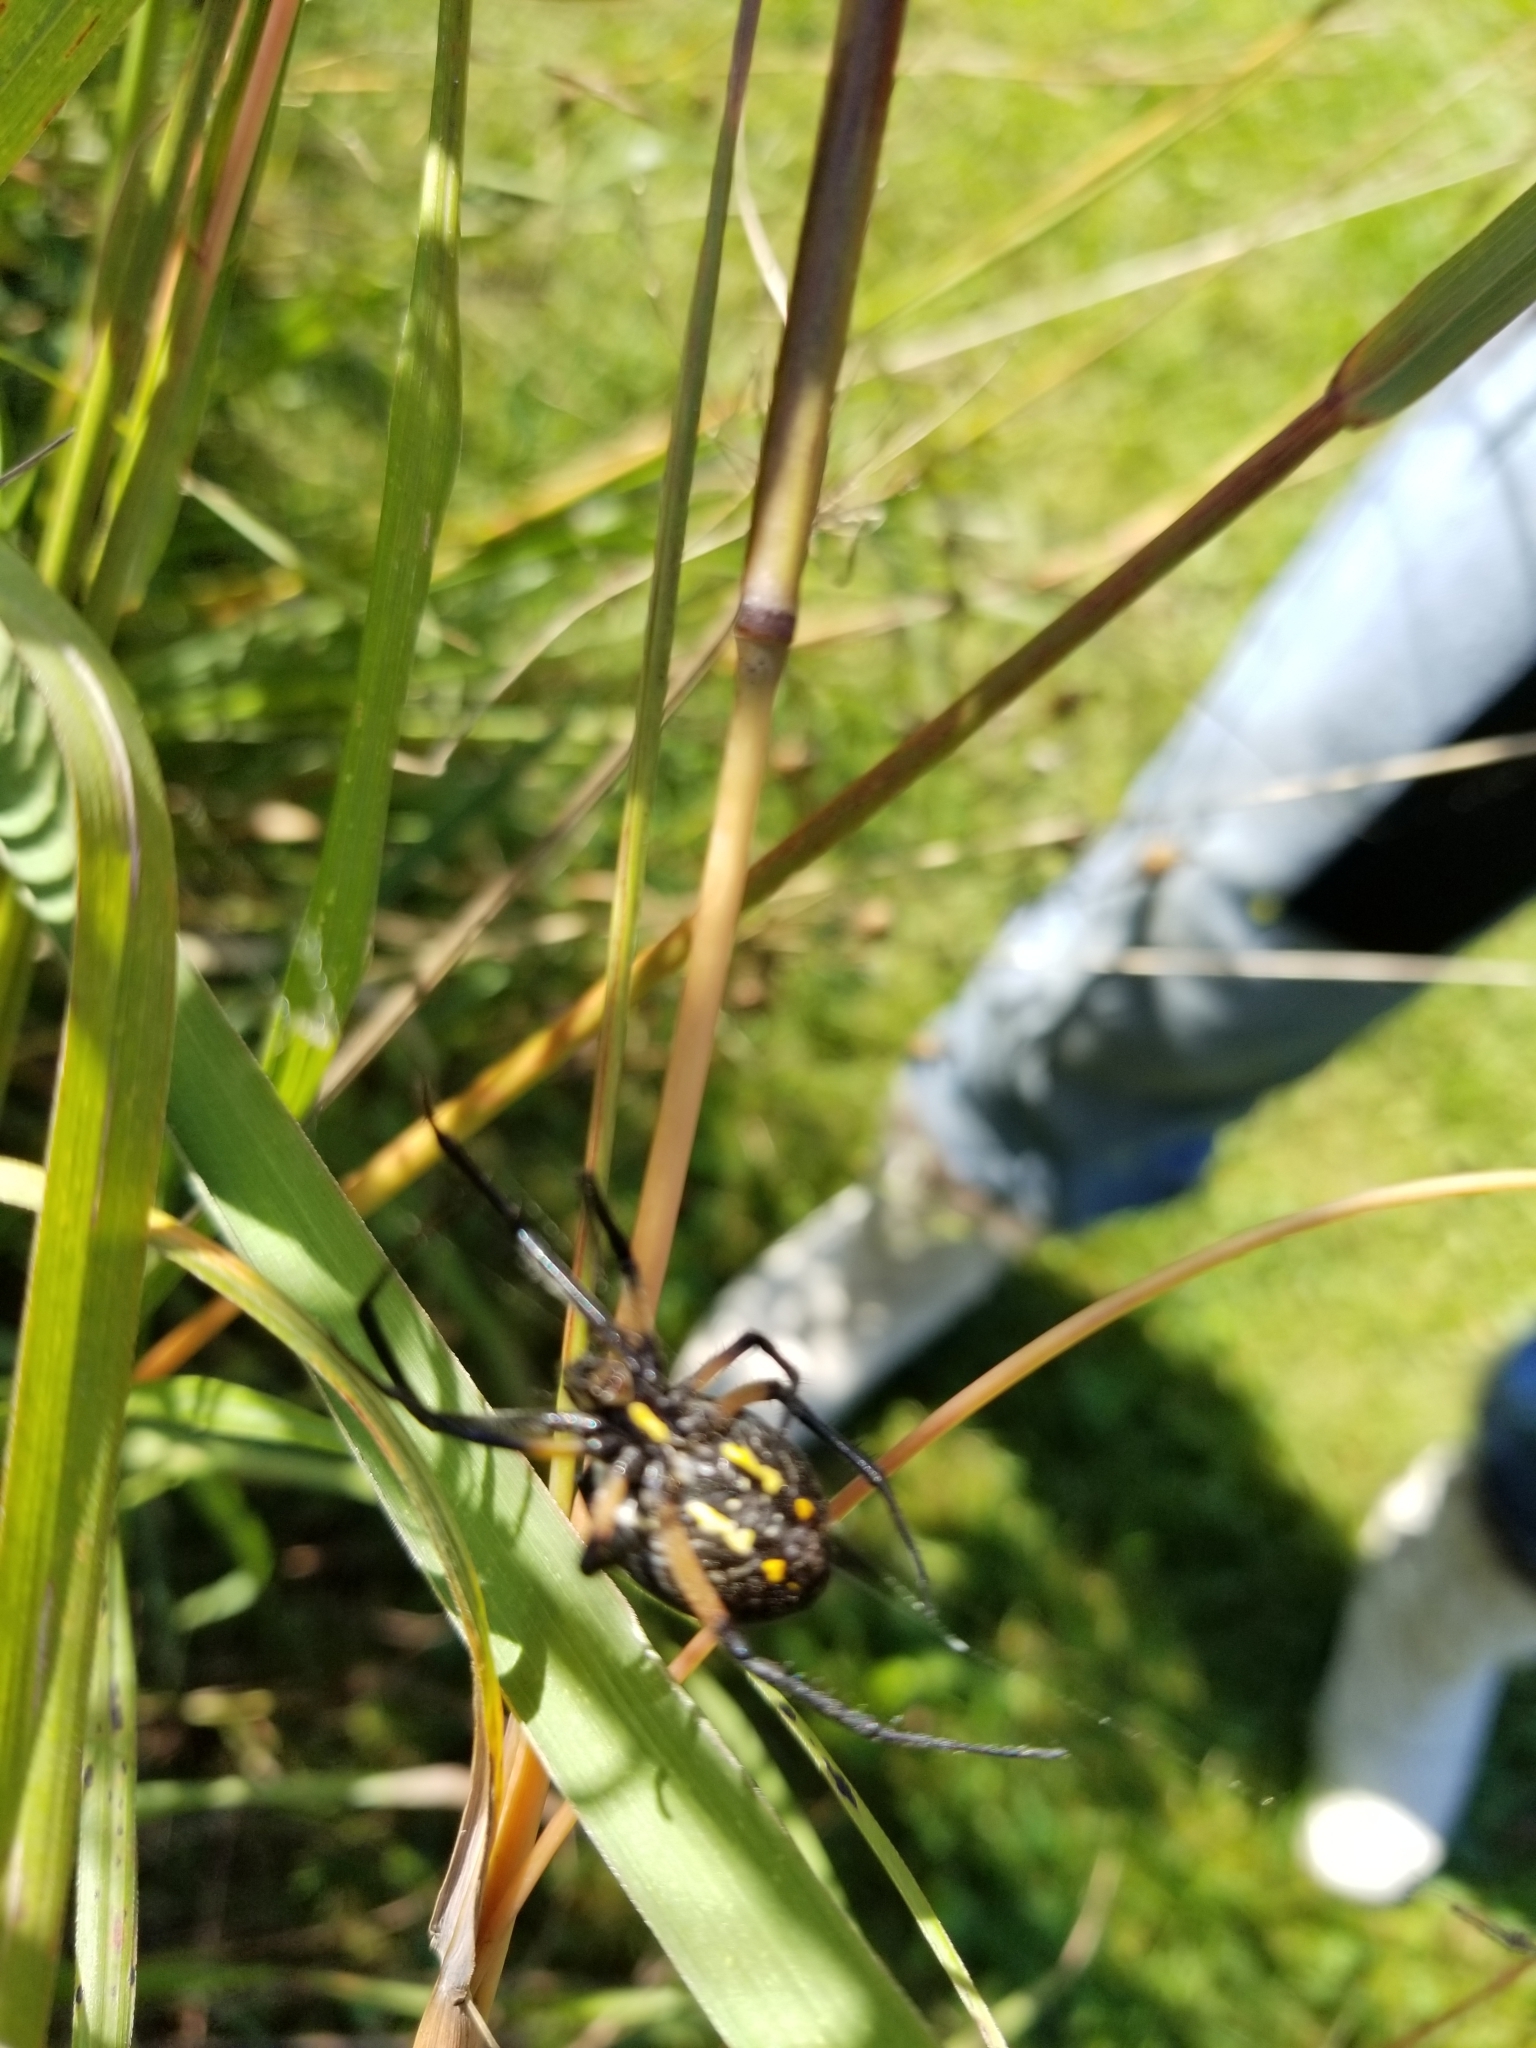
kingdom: Animalia
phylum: Arthropoda
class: Arachnida
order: Araneae
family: Araneidae
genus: Argiope
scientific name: Argiope aurantia
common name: Orb weavers
